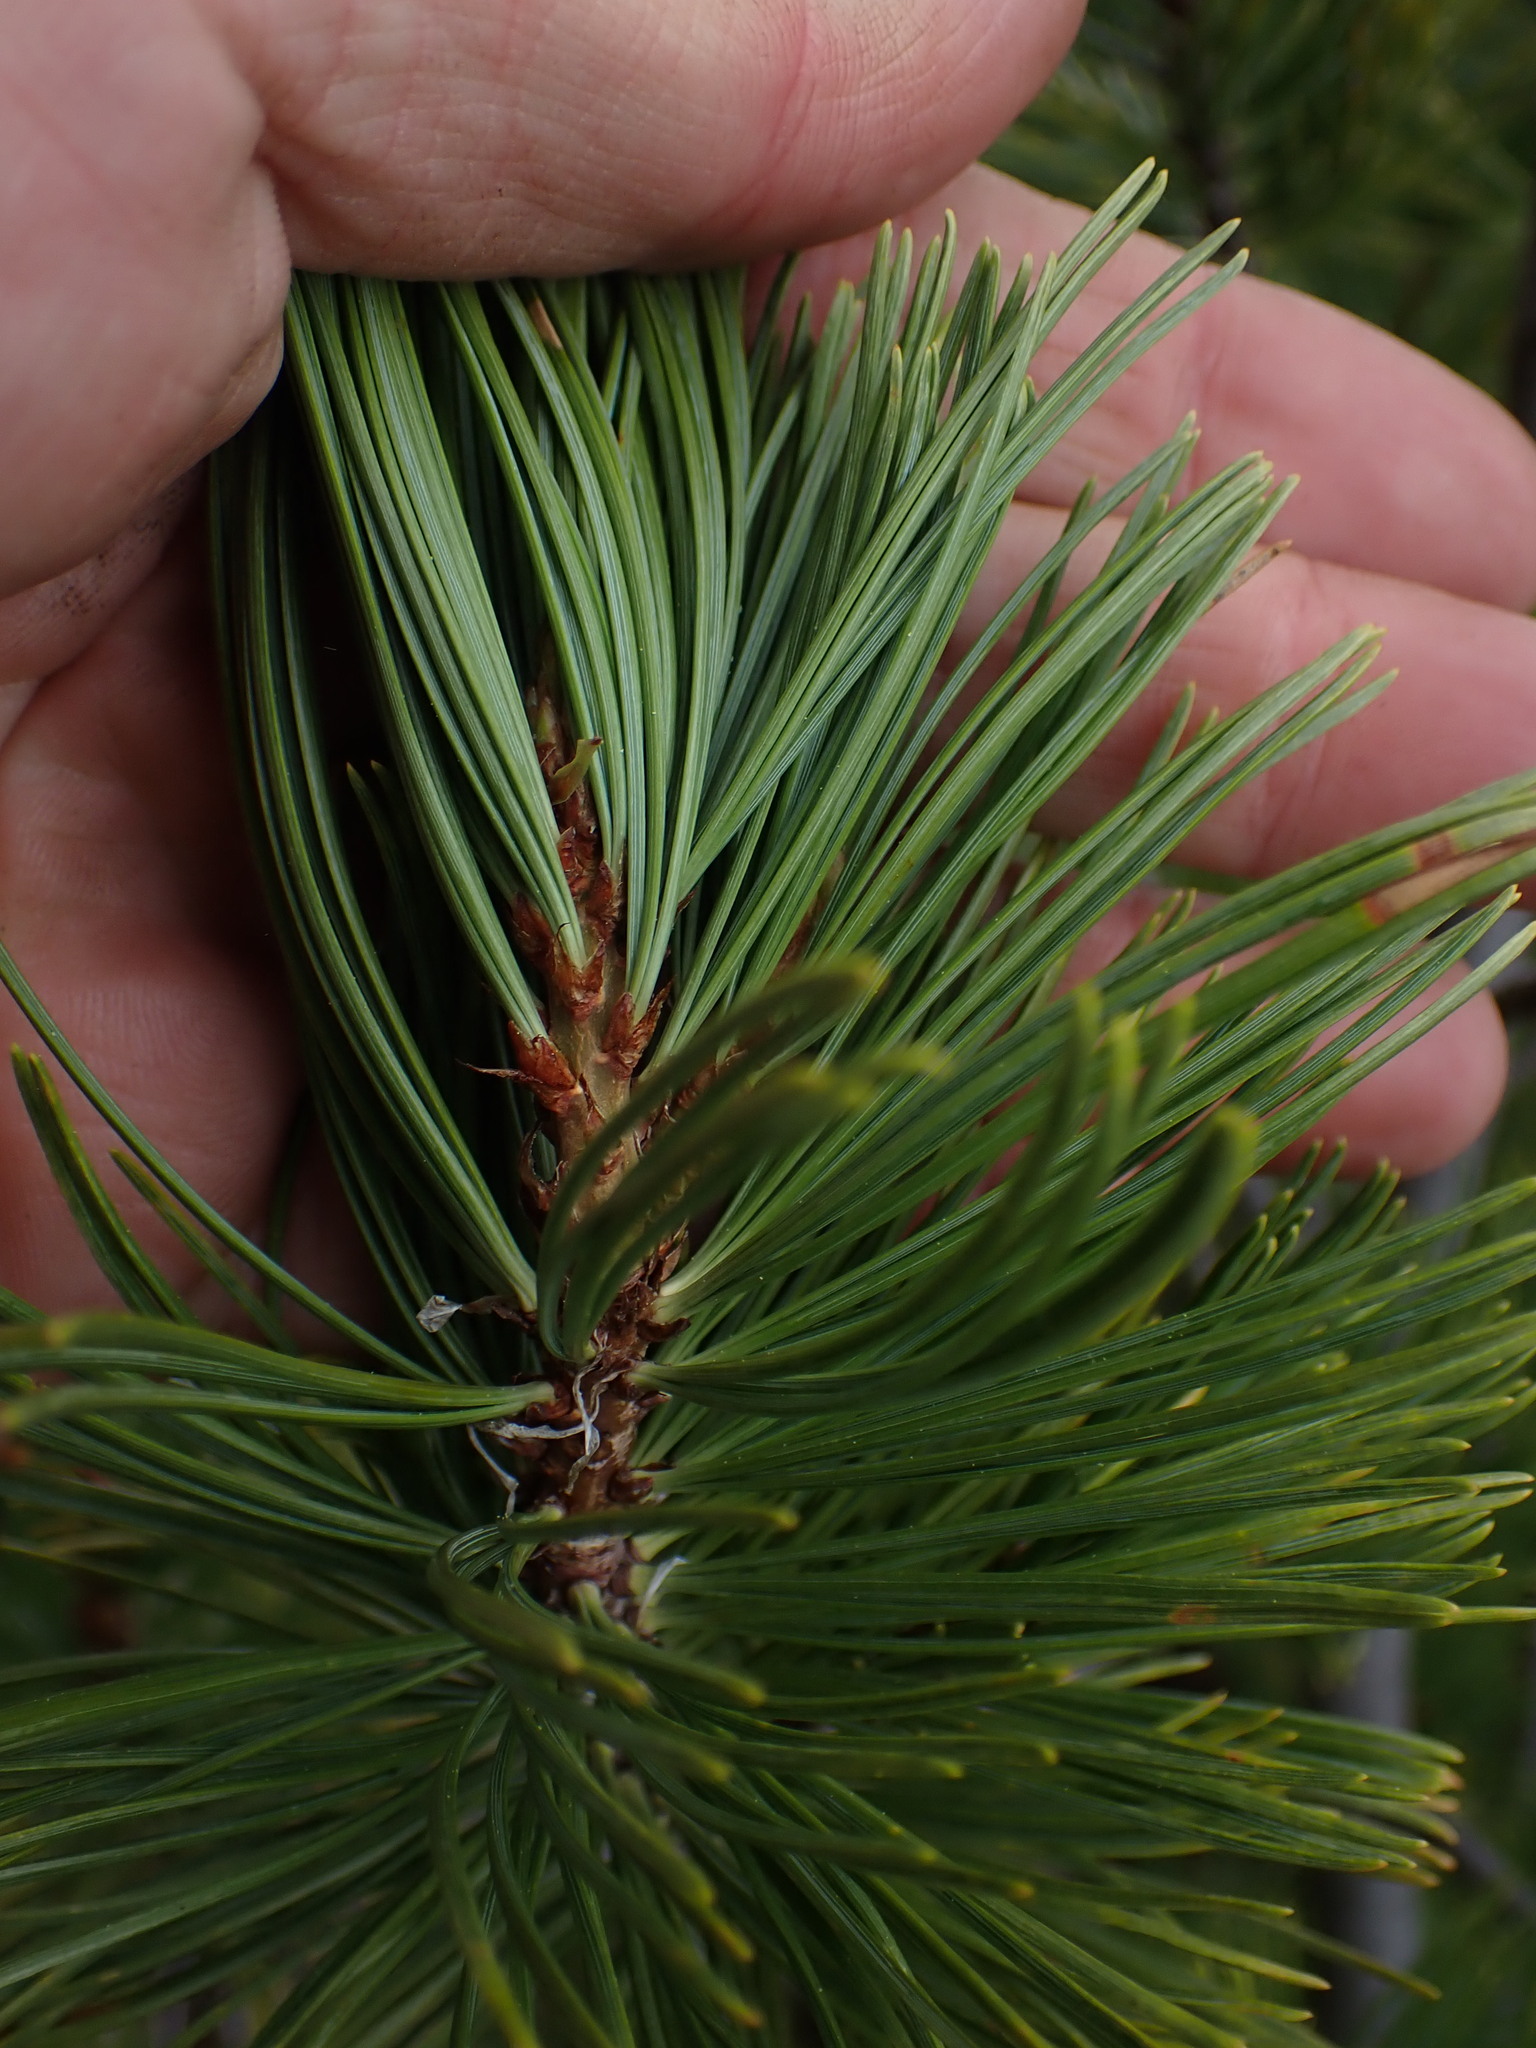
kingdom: Plantae
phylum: Tracheophyta
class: Pinopsida
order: Pinales
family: Pinaceae
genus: Pinus
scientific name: Pinus albicaulis
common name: Whitebark pine
